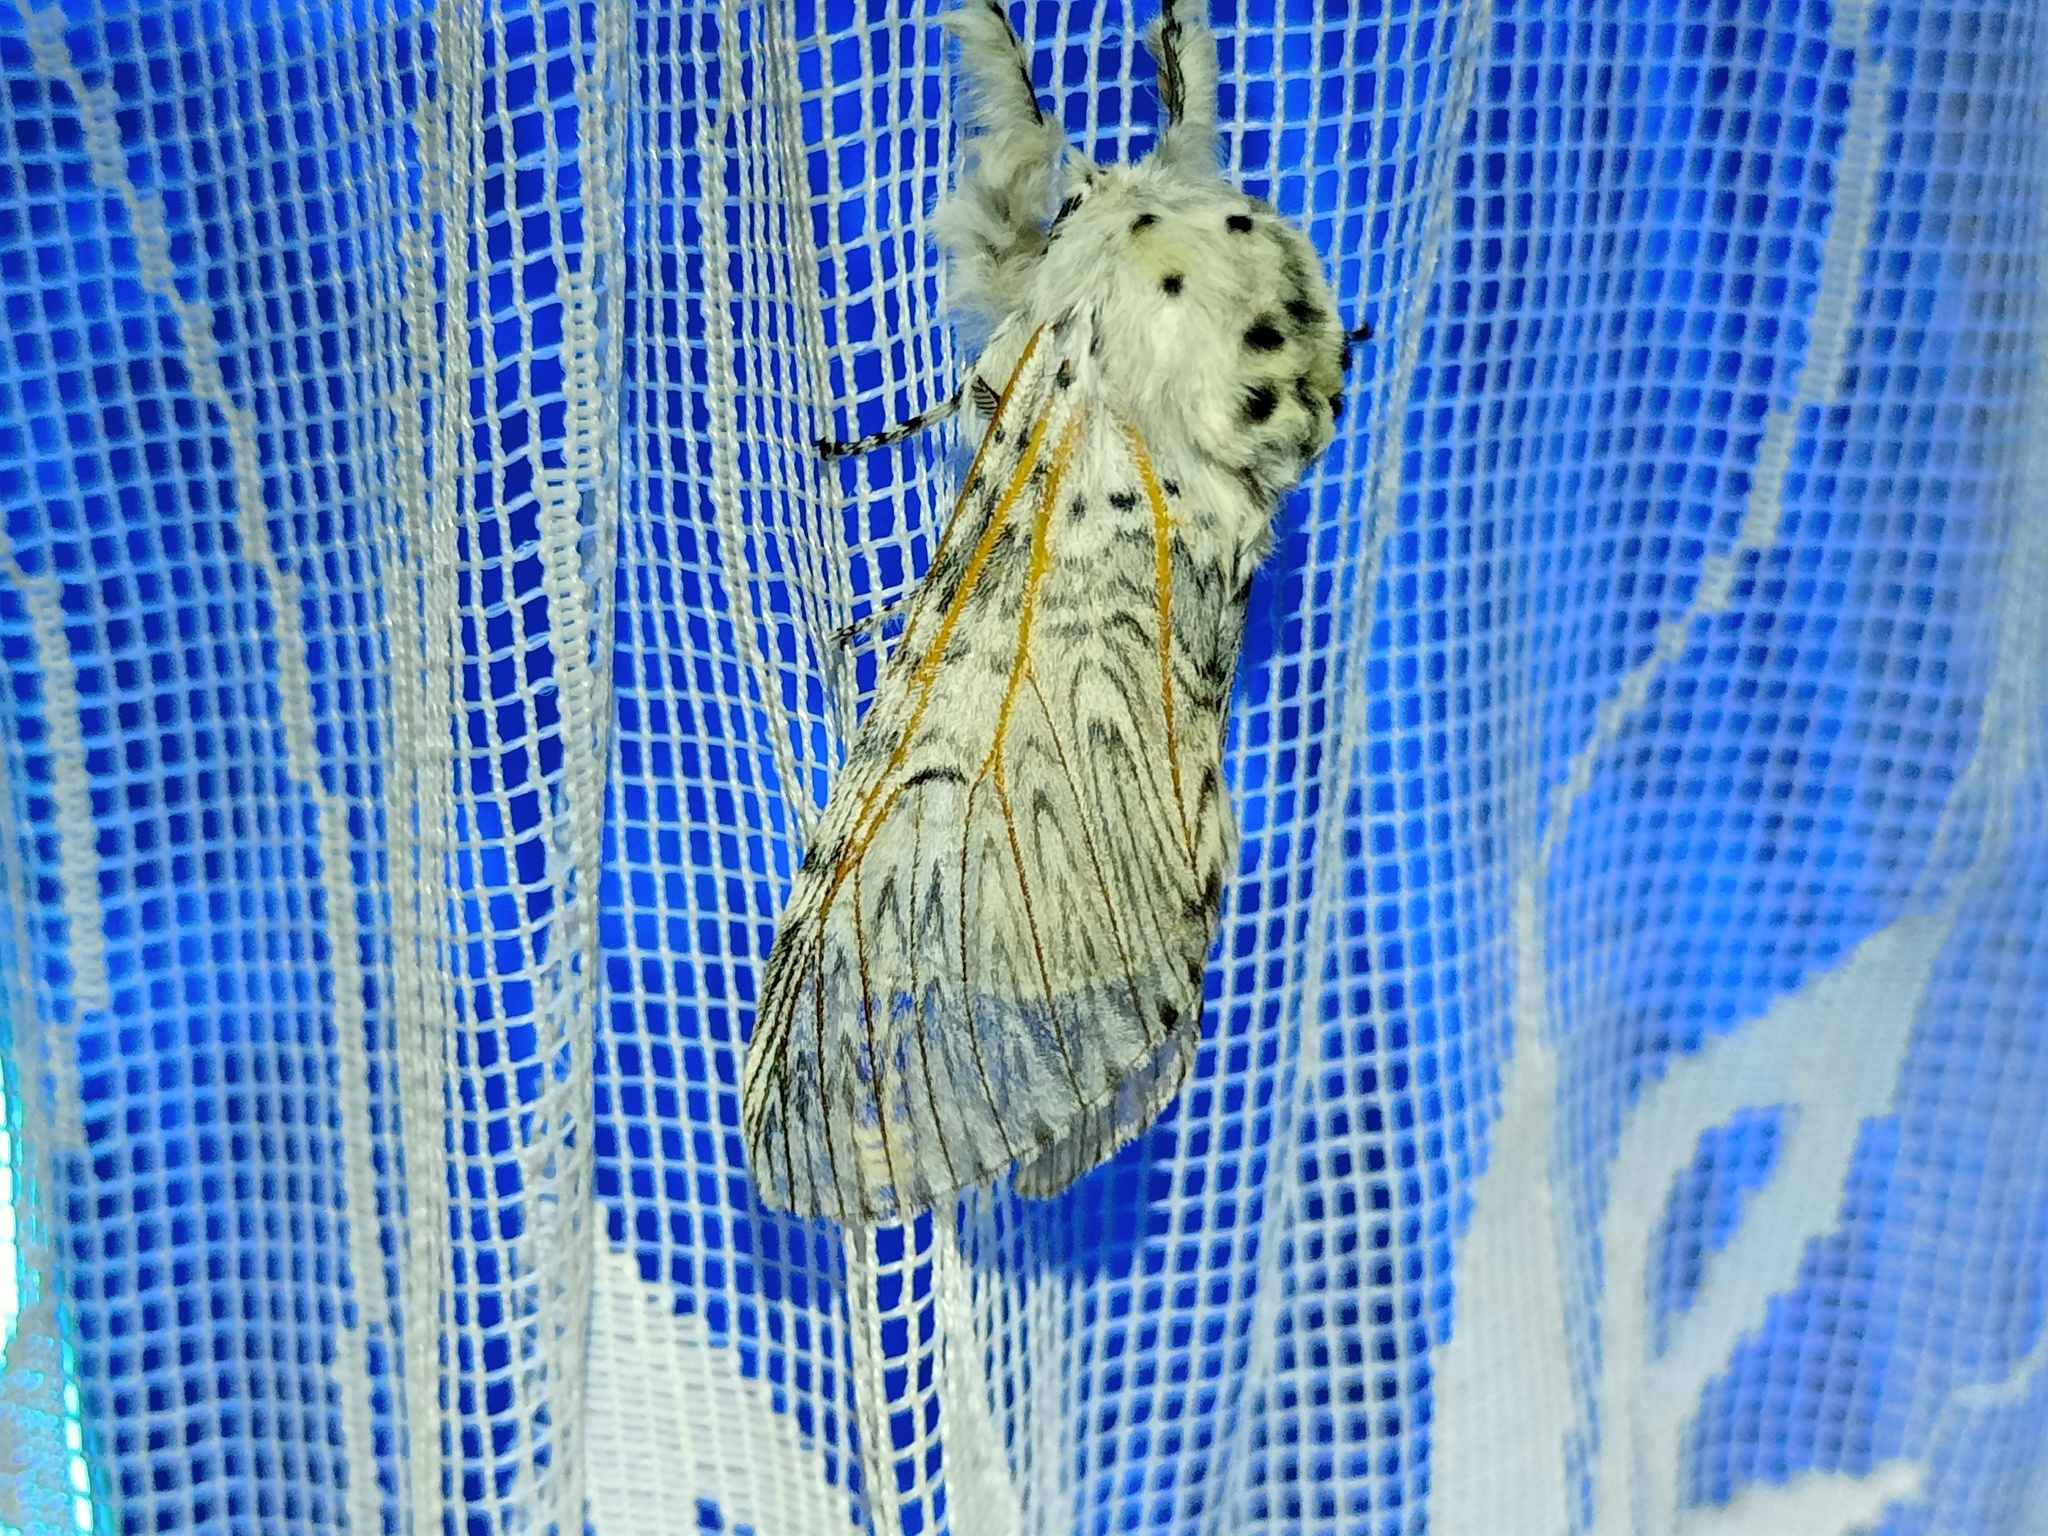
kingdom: Animalia
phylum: Arthropoda
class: Insecta
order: Lepidoptera
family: Notodontidae
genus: Cerura
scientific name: Cerura vinula
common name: Puss moth
